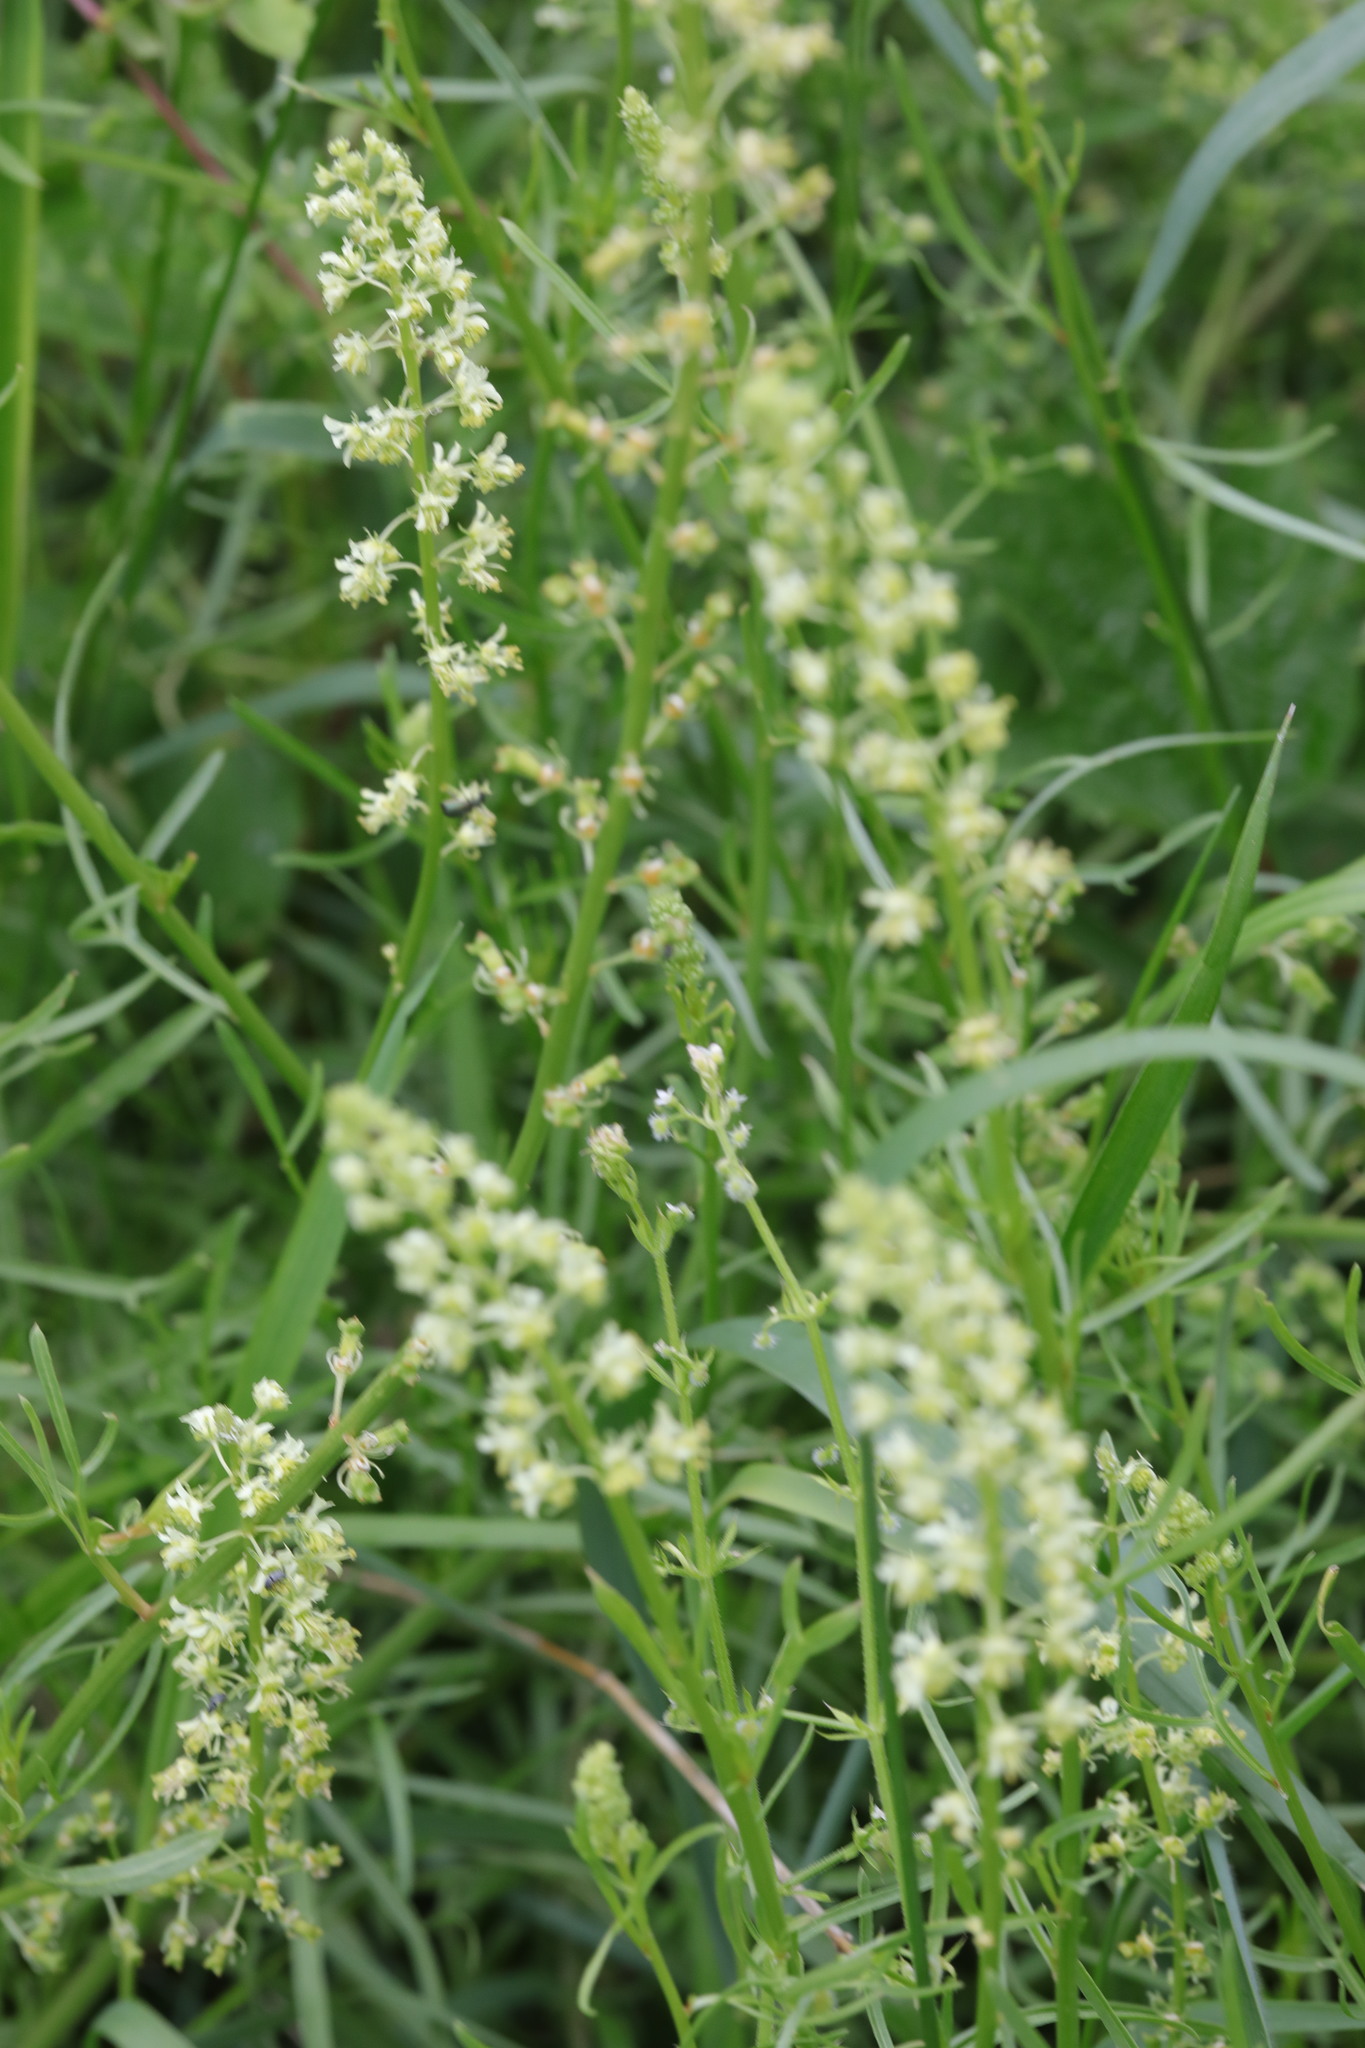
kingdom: Plantae
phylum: Tracheophyta
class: Magnoliopsida
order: Brassicales
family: Resedaceae
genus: Reseda
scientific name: Reseda lutea
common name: Wild mignonette
